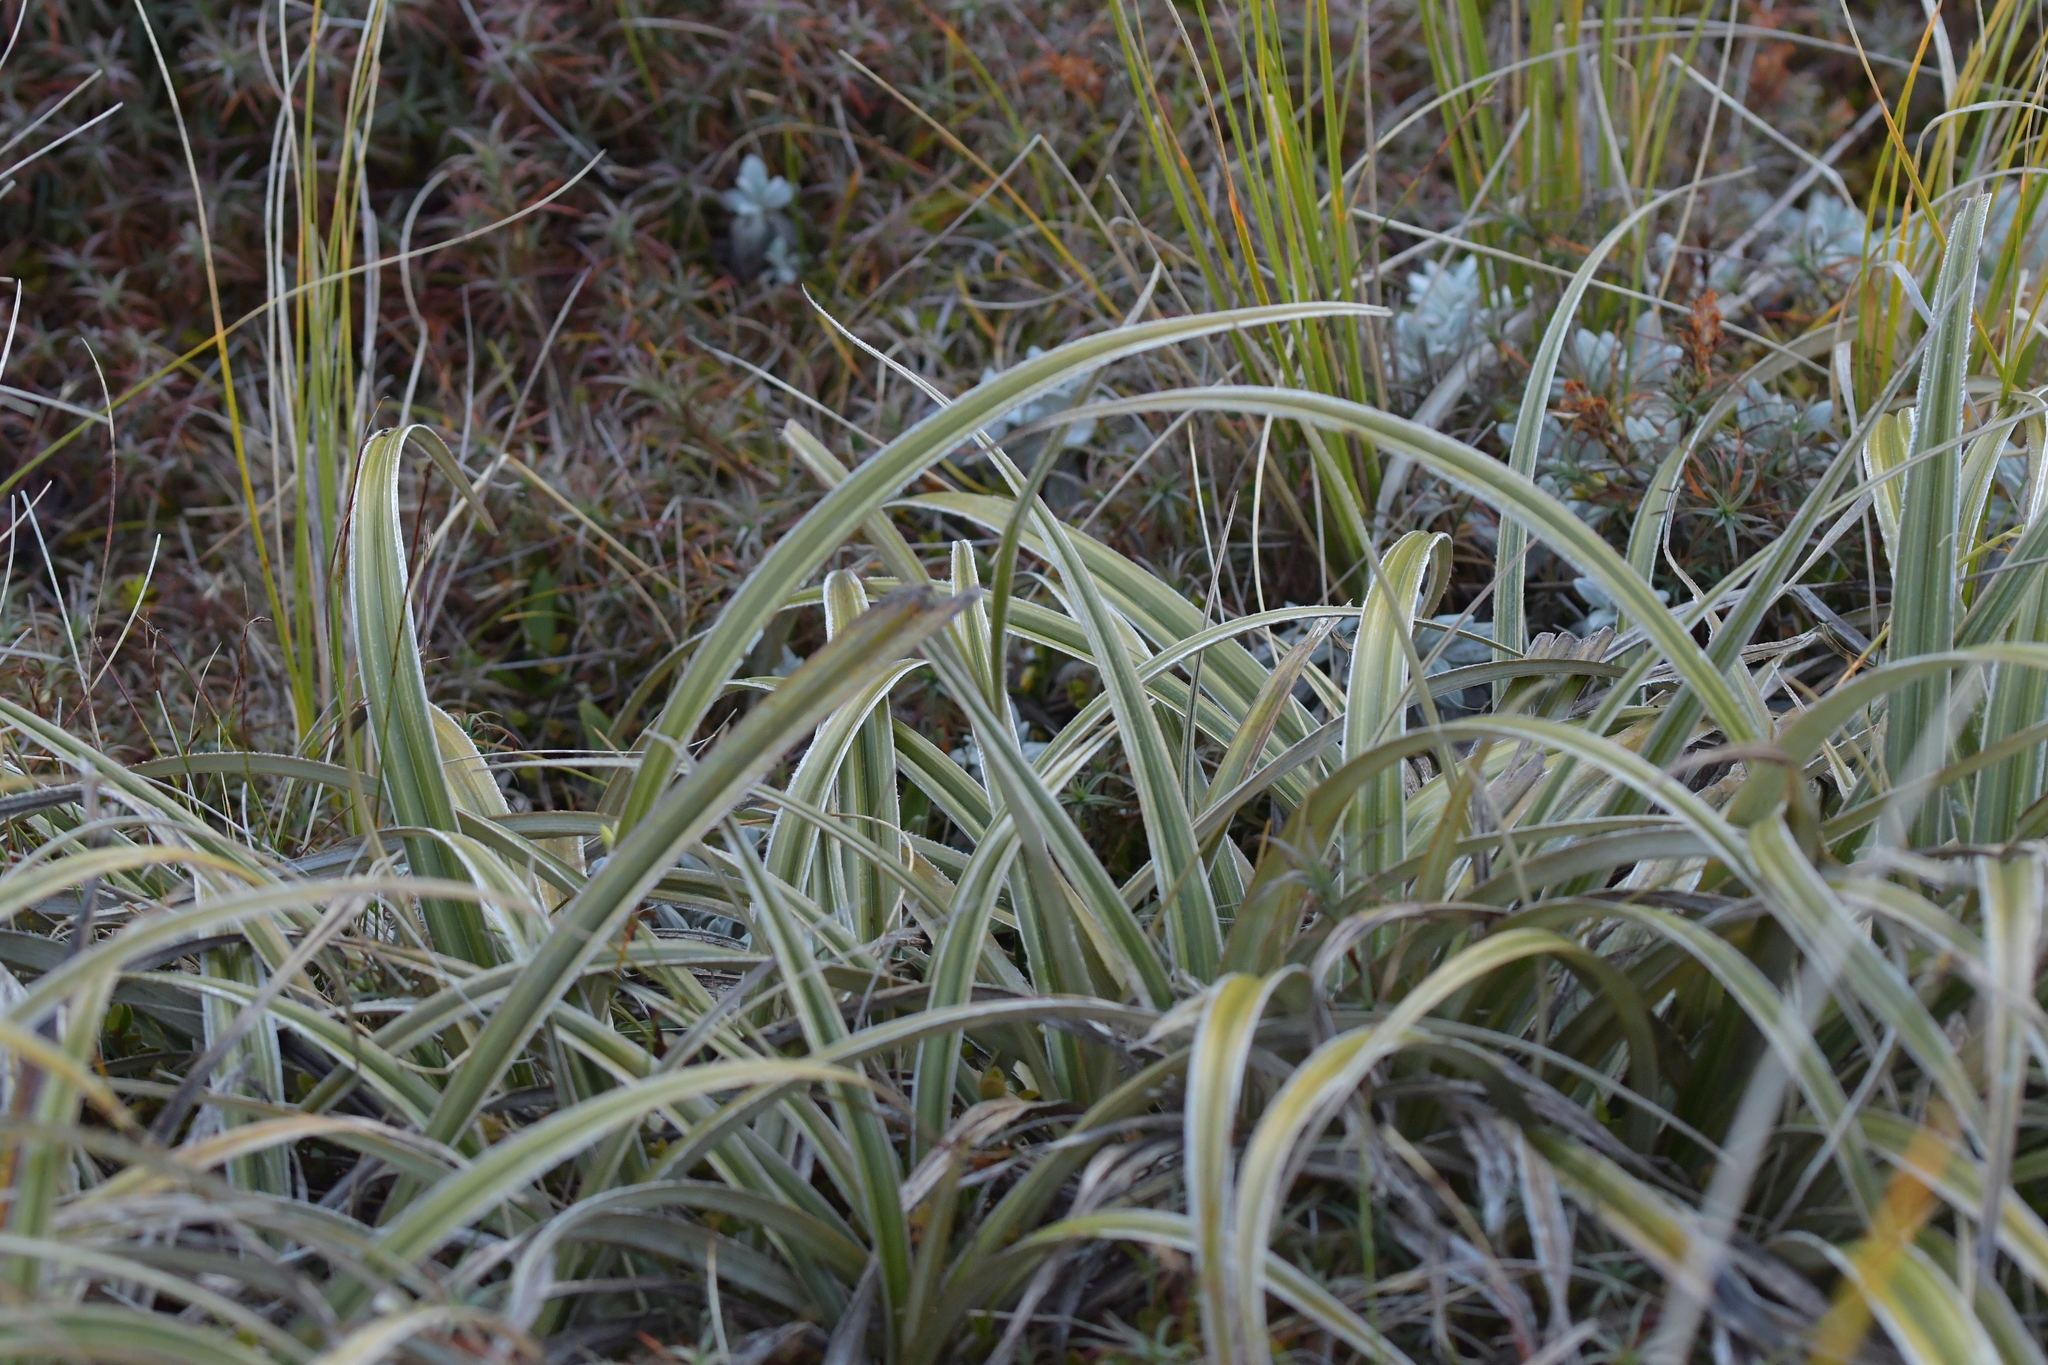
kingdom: Plantae
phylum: Tracheophyta
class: Liliopsida
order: Asparagales
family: Asteliaceae
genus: Astelia
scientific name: Astelia nervosa
